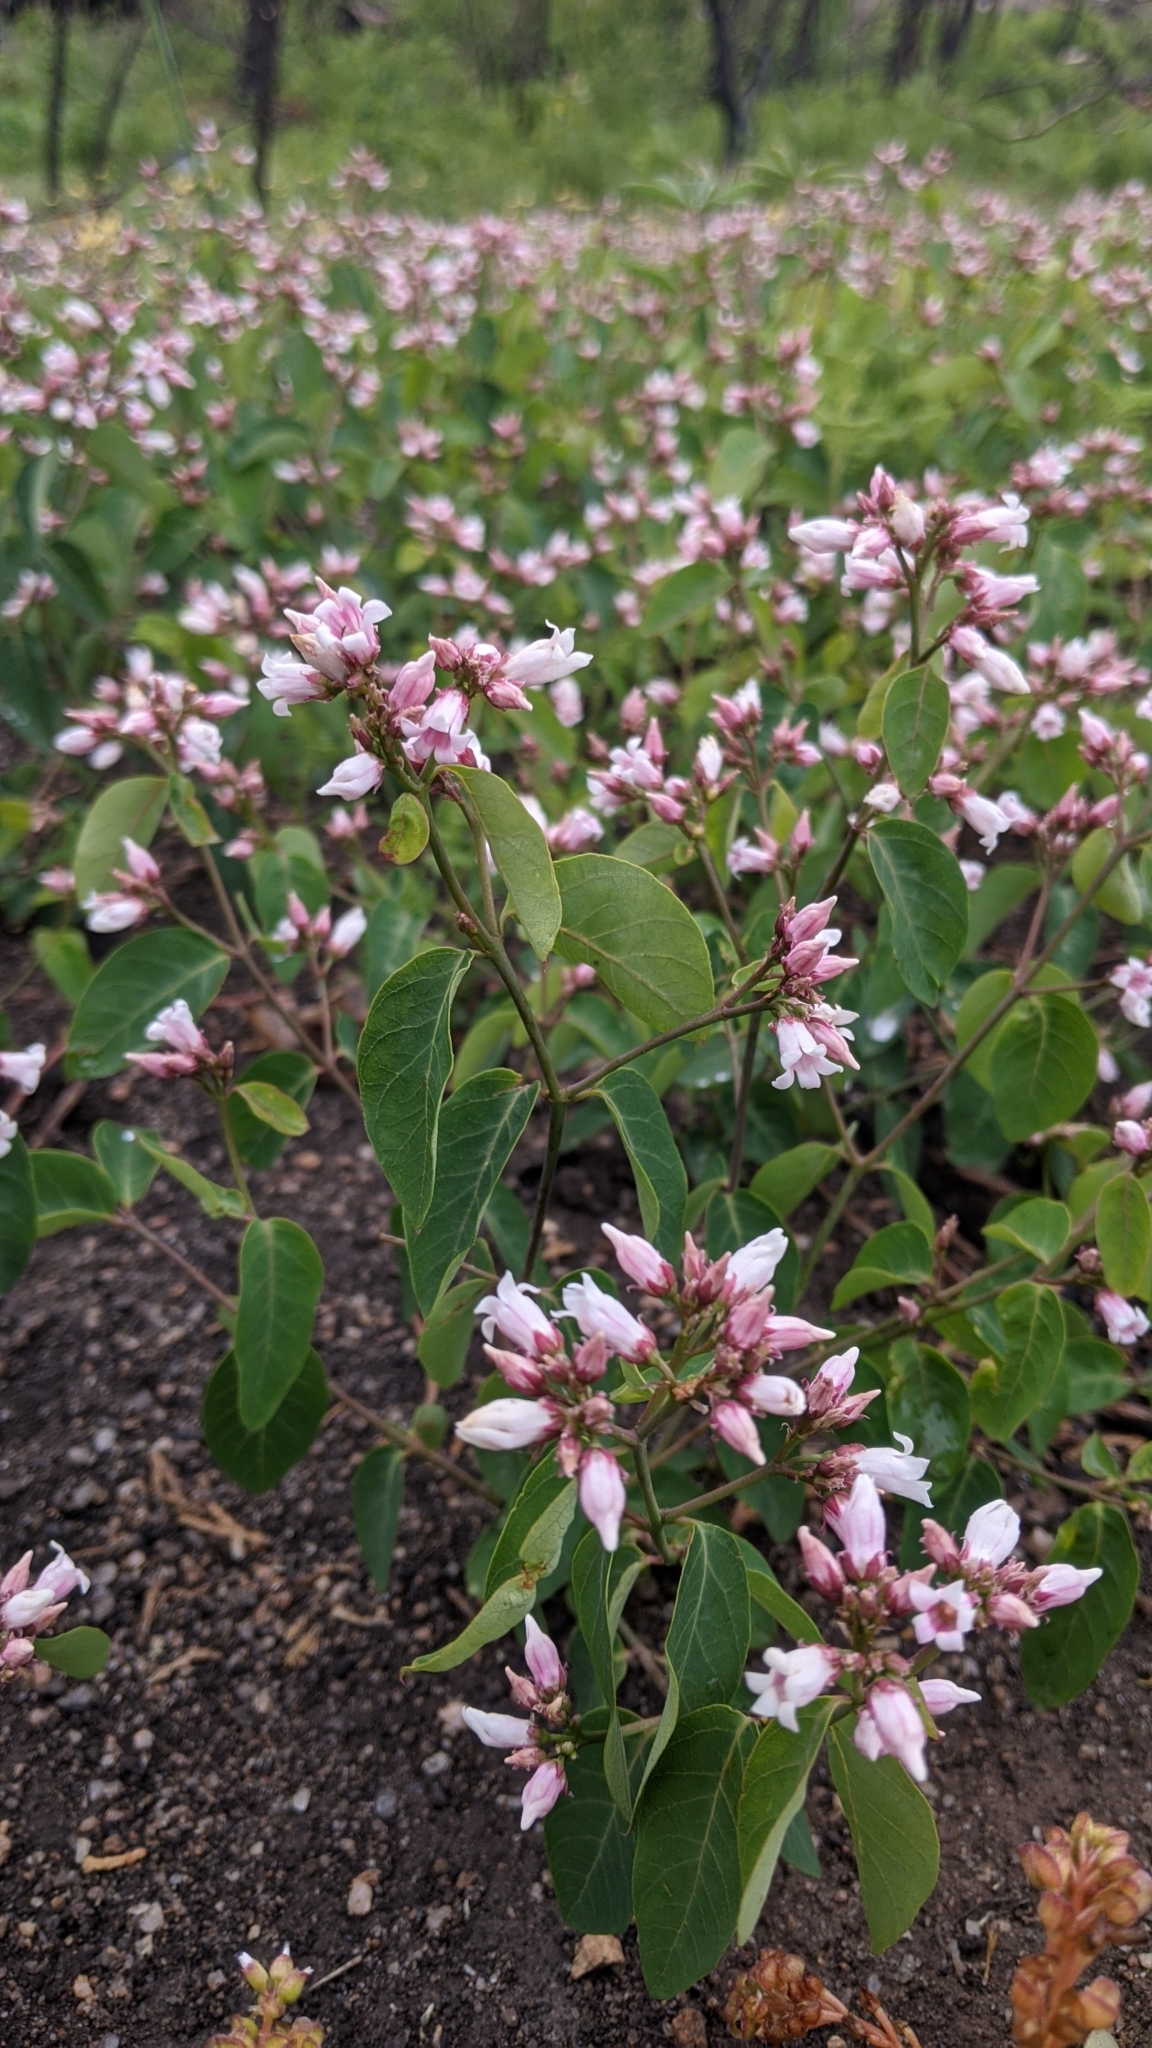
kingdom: Plantae
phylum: Tracheophyta
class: Magnoliopsida
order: Gentianales
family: Apocynaceae
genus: Apocynum
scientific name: Apocynum androsaemifolium
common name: Spreading dogbane
